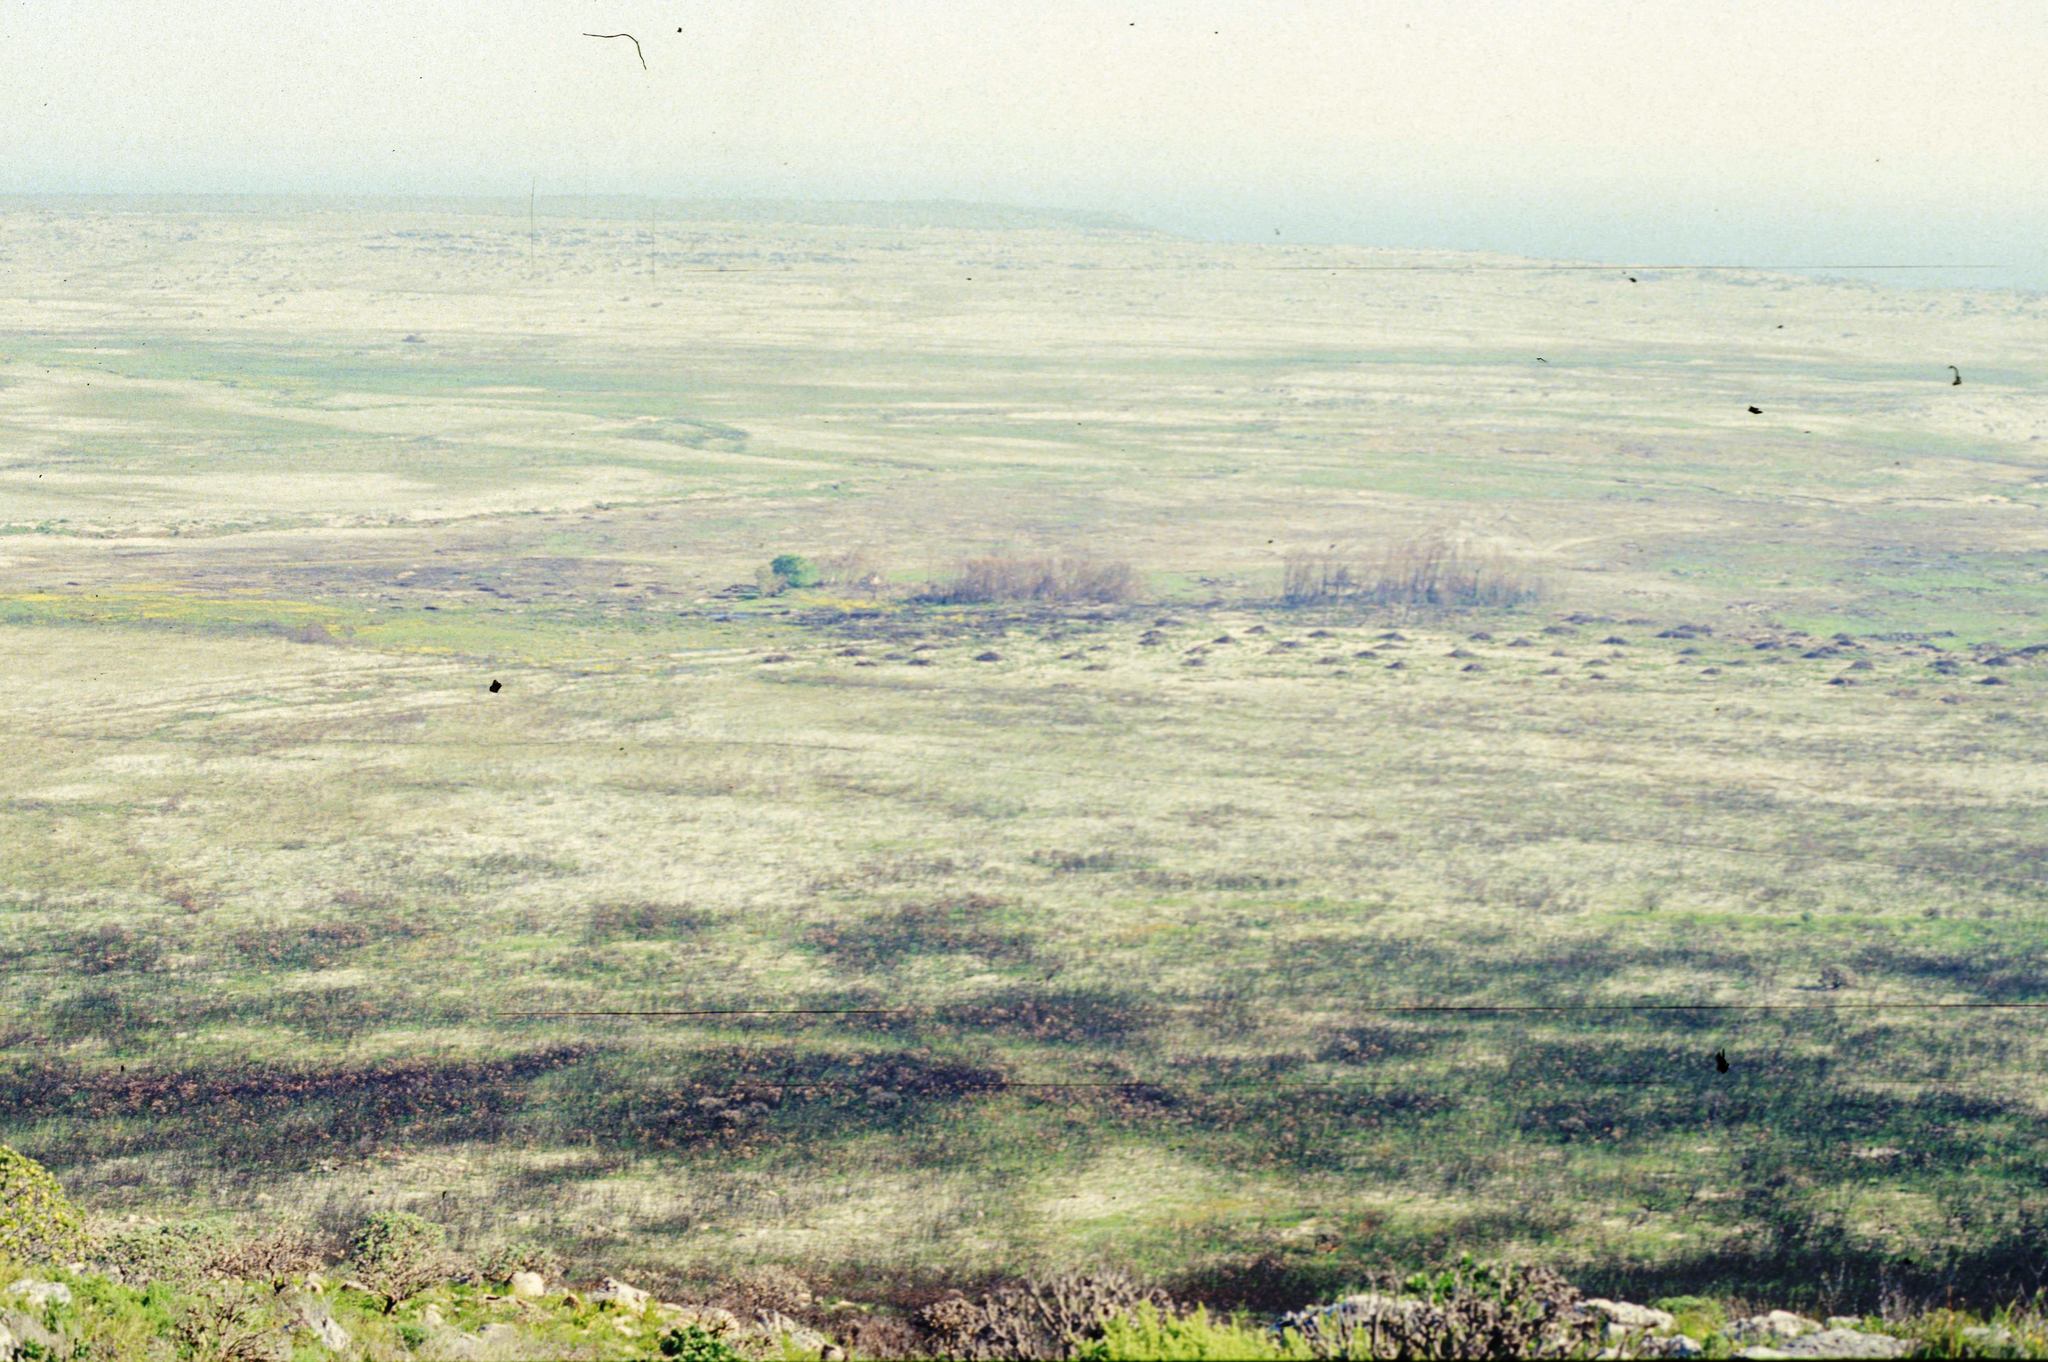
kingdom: Plantae
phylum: Tracheophyta
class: Magnoliopsida
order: Fabales
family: Fabaceae
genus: Acacia
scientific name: Acacia saligna
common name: Orange wattle
